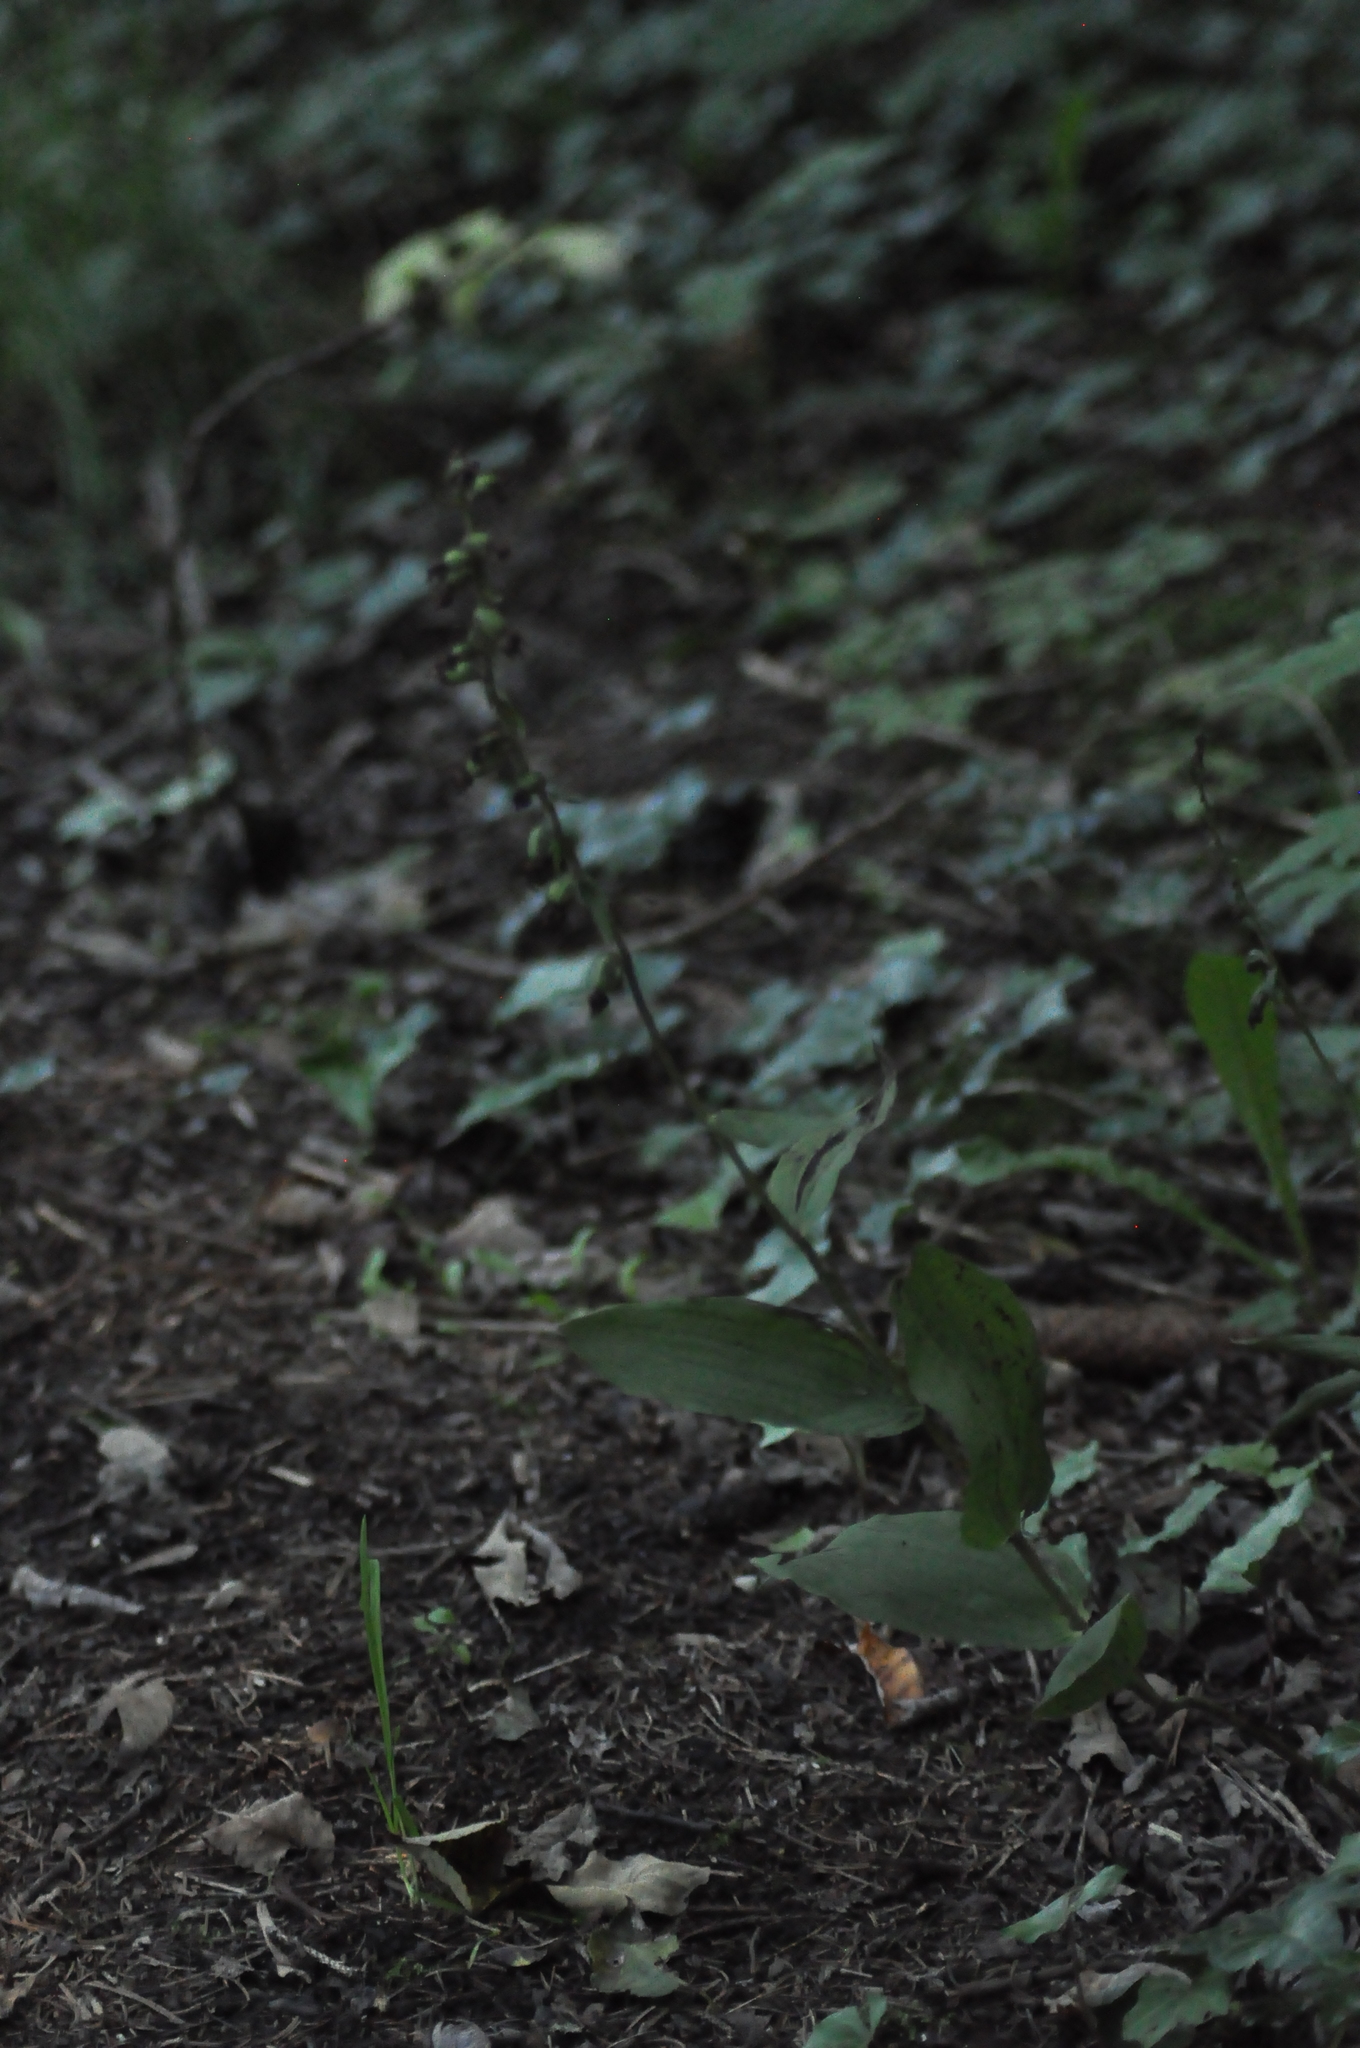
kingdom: Plantae
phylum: Tracheophyta
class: Liliopsida
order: Asparagales
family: Orchidaceae
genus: Epipactis
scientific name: Epipactis helleborine
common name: Broad-leaved helleborine
